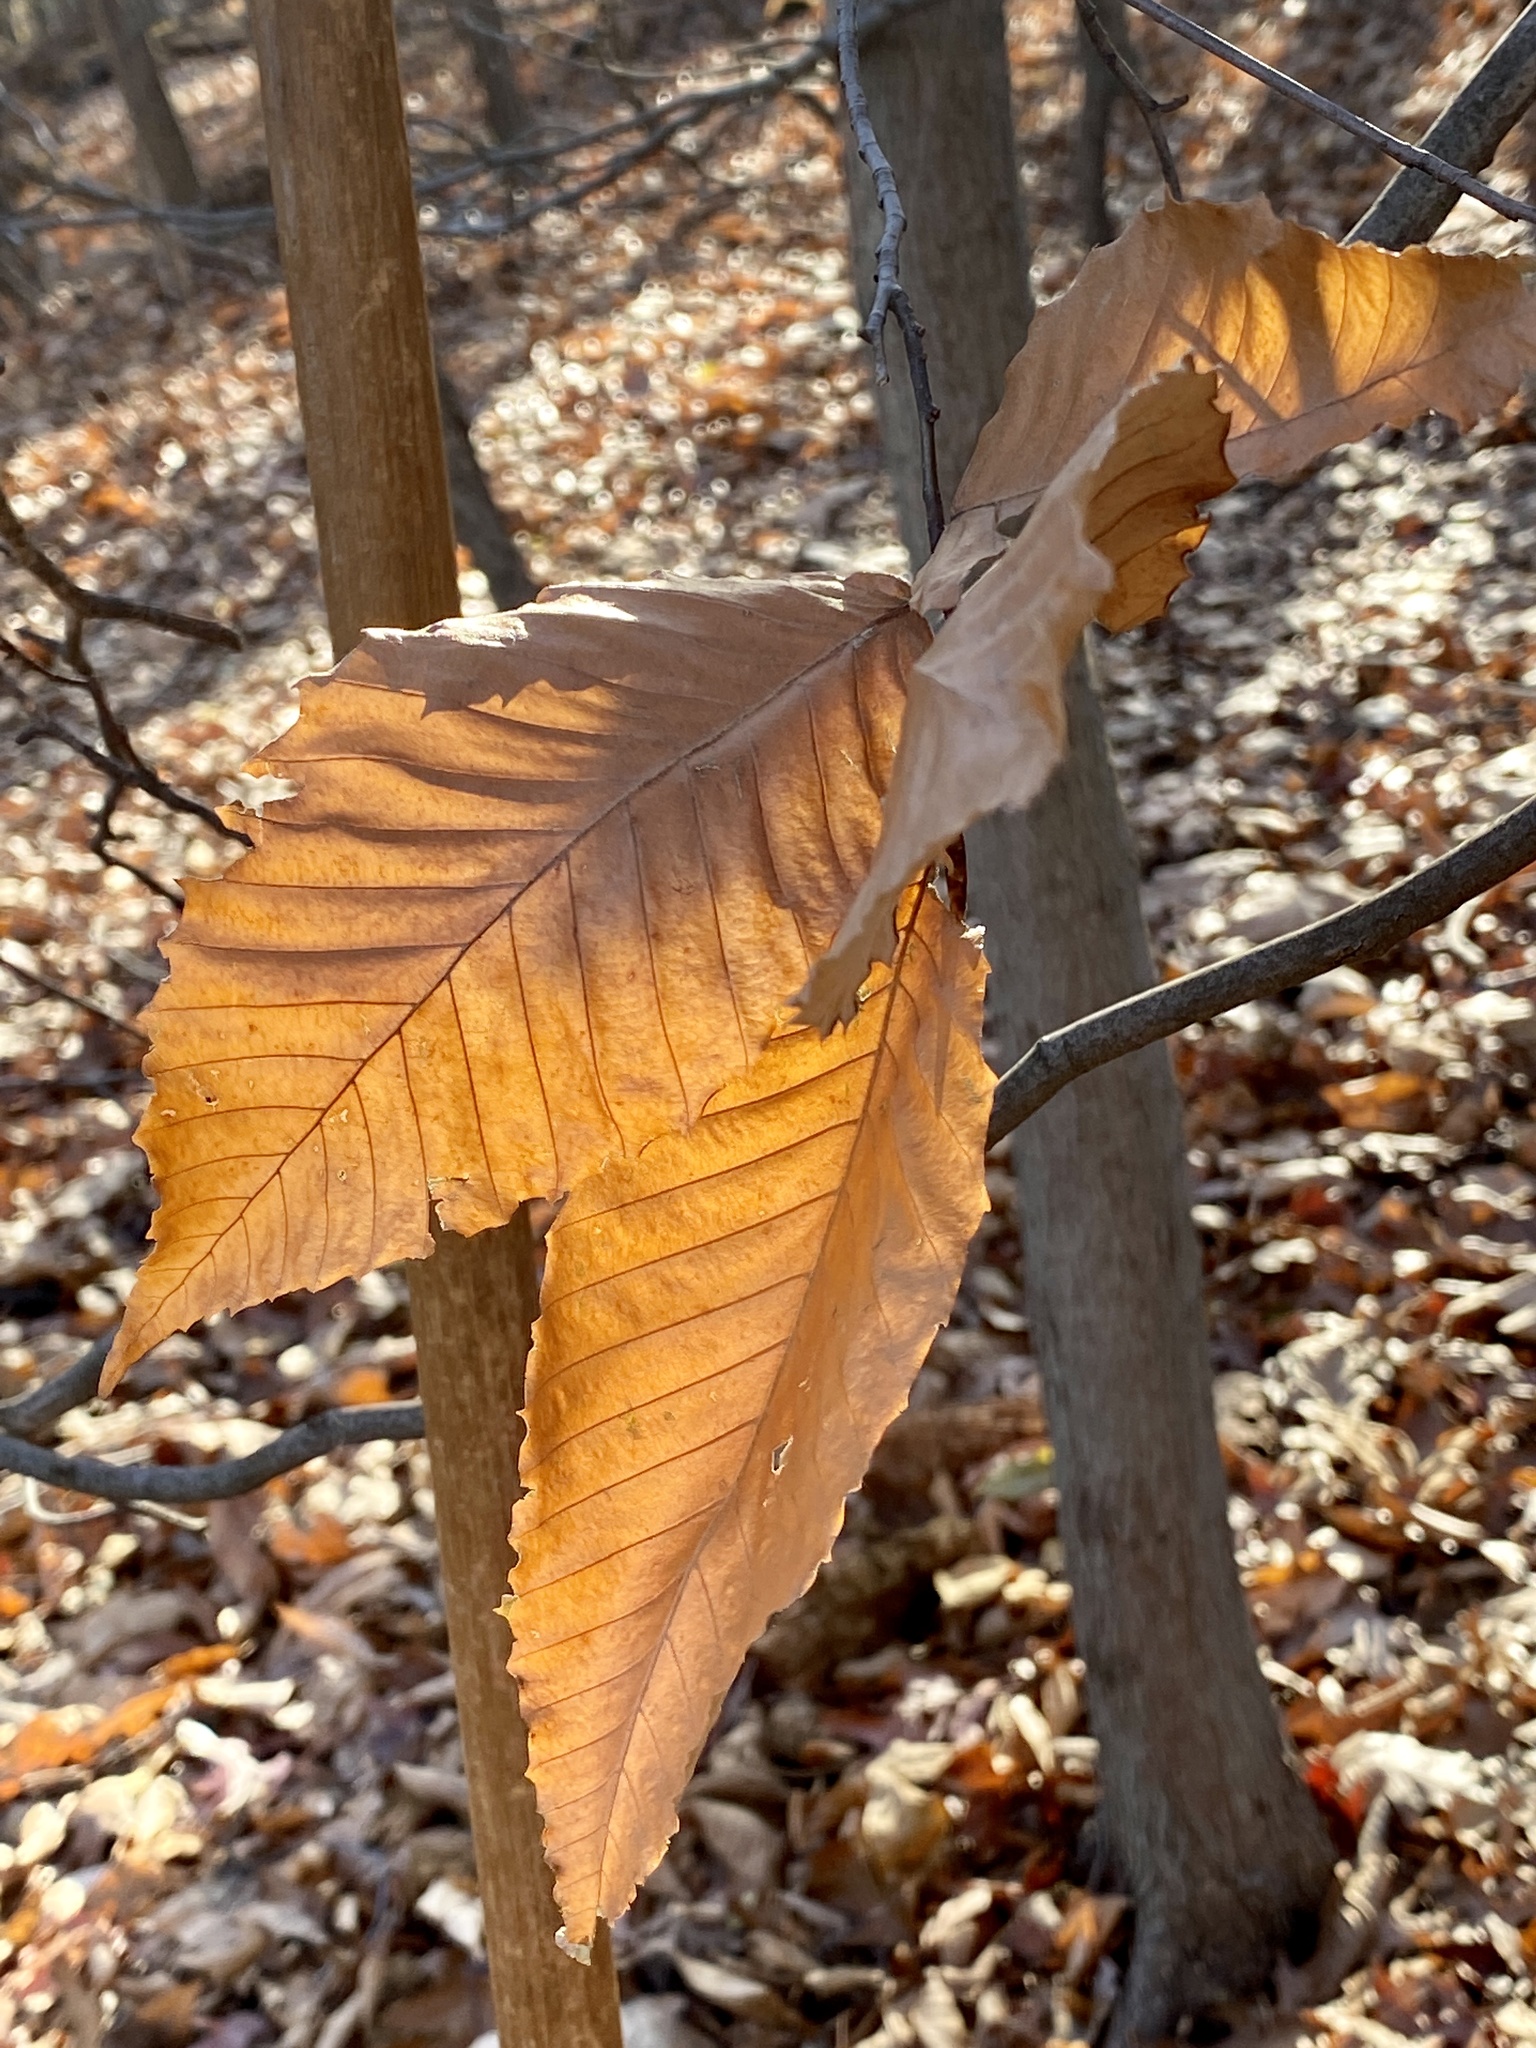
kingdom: Plantae
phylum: Tracheophyta
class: Magnoliopsida
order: Fagales
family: Fagaceae
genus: Fagus
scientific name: Fagus grandifolia
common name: American beech
